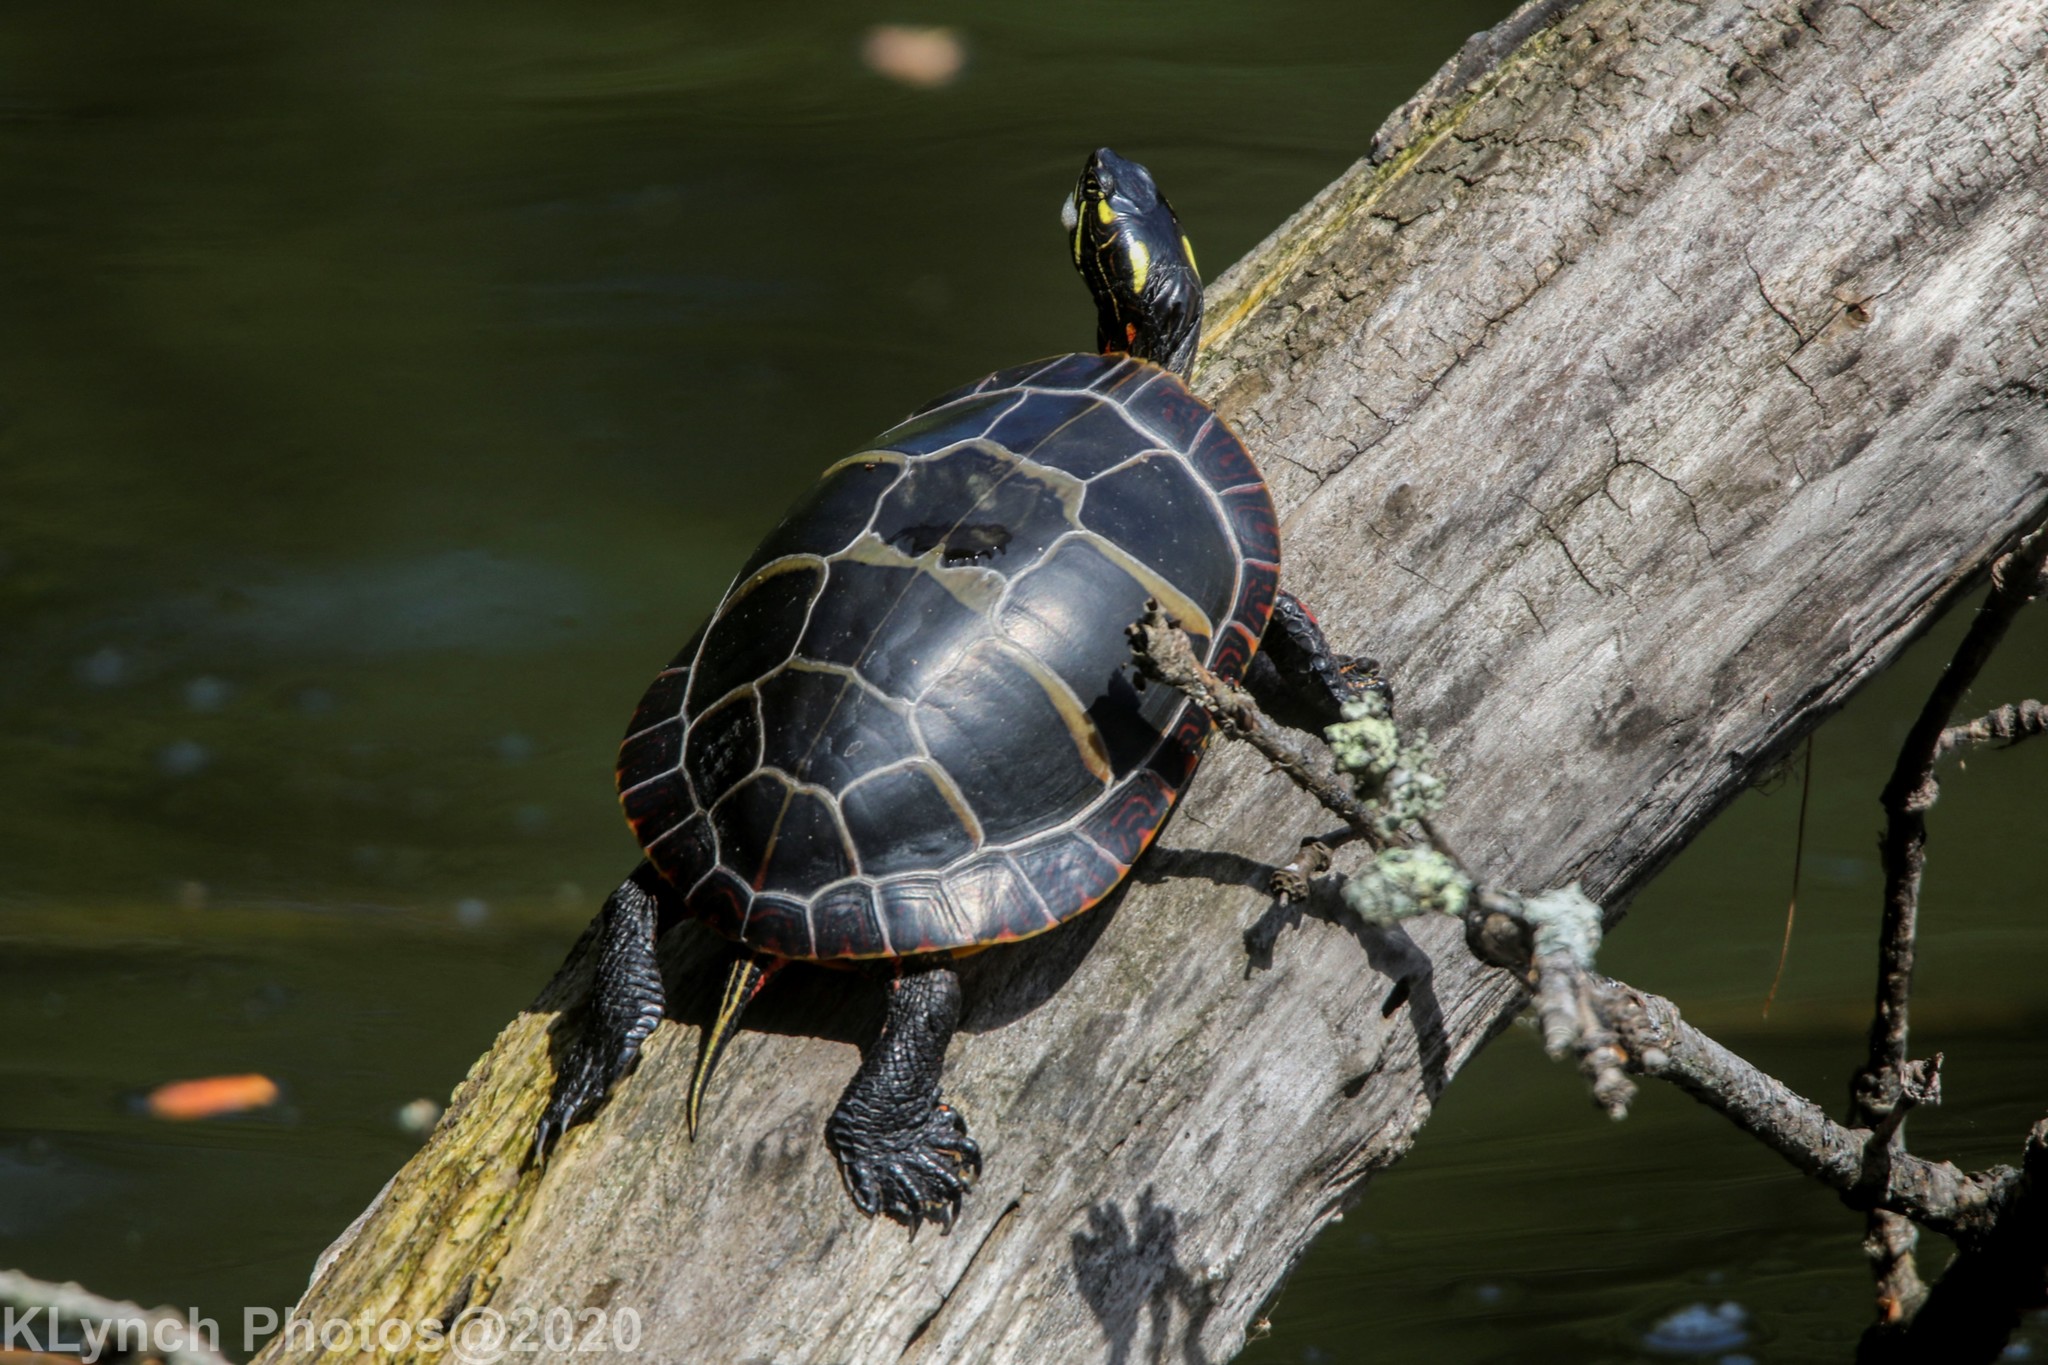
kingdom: Animalia
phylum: Chordata
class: Testudines
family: Emydidae
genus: Chrysemys
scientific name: Chrysemys picta
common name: Painted turtle
